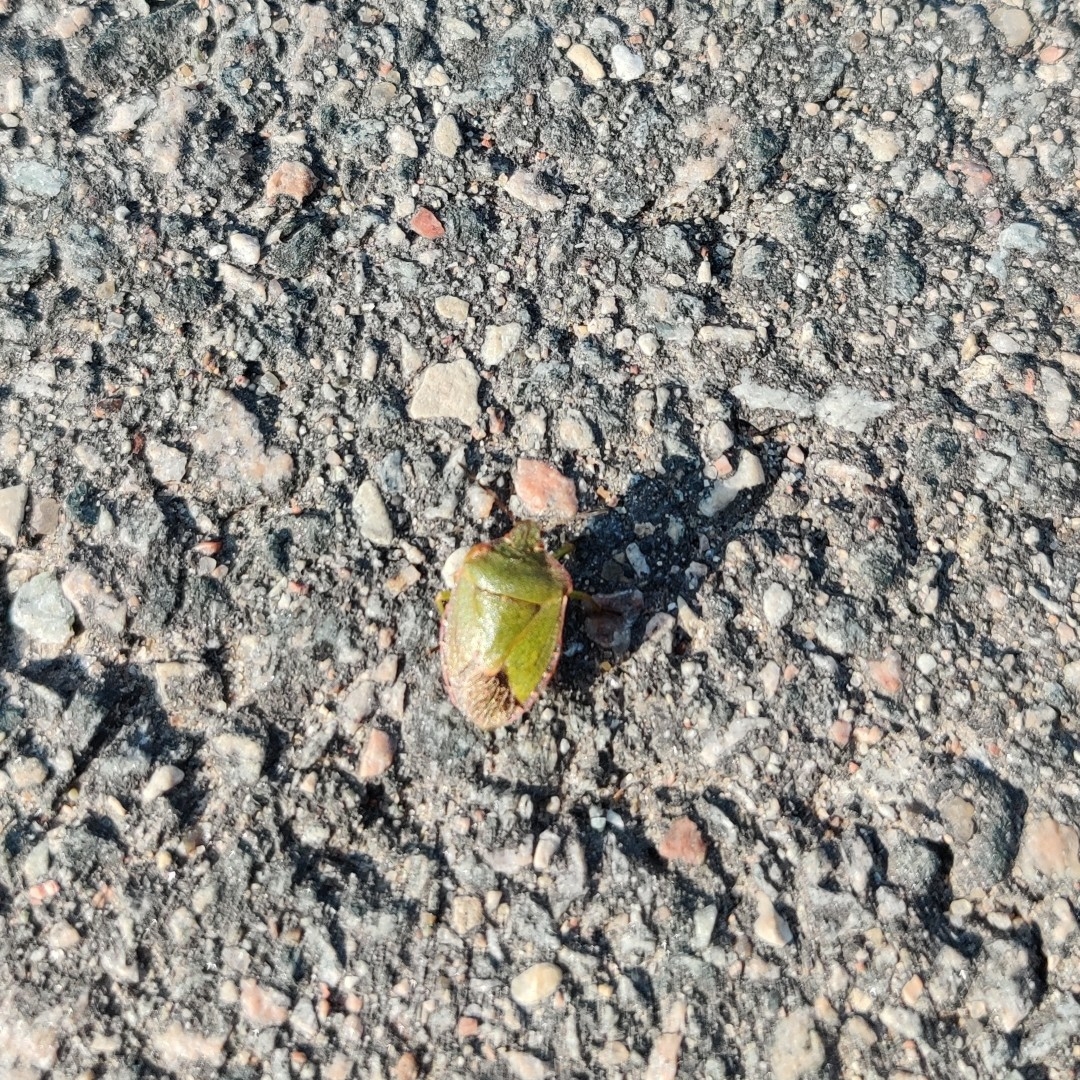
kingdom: Animalia
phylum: Arthropoda
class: Insecta
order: Hemiptera
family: Pentatomidae
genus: Palomena
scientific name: Palomena prasina
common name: Green shieldbug
